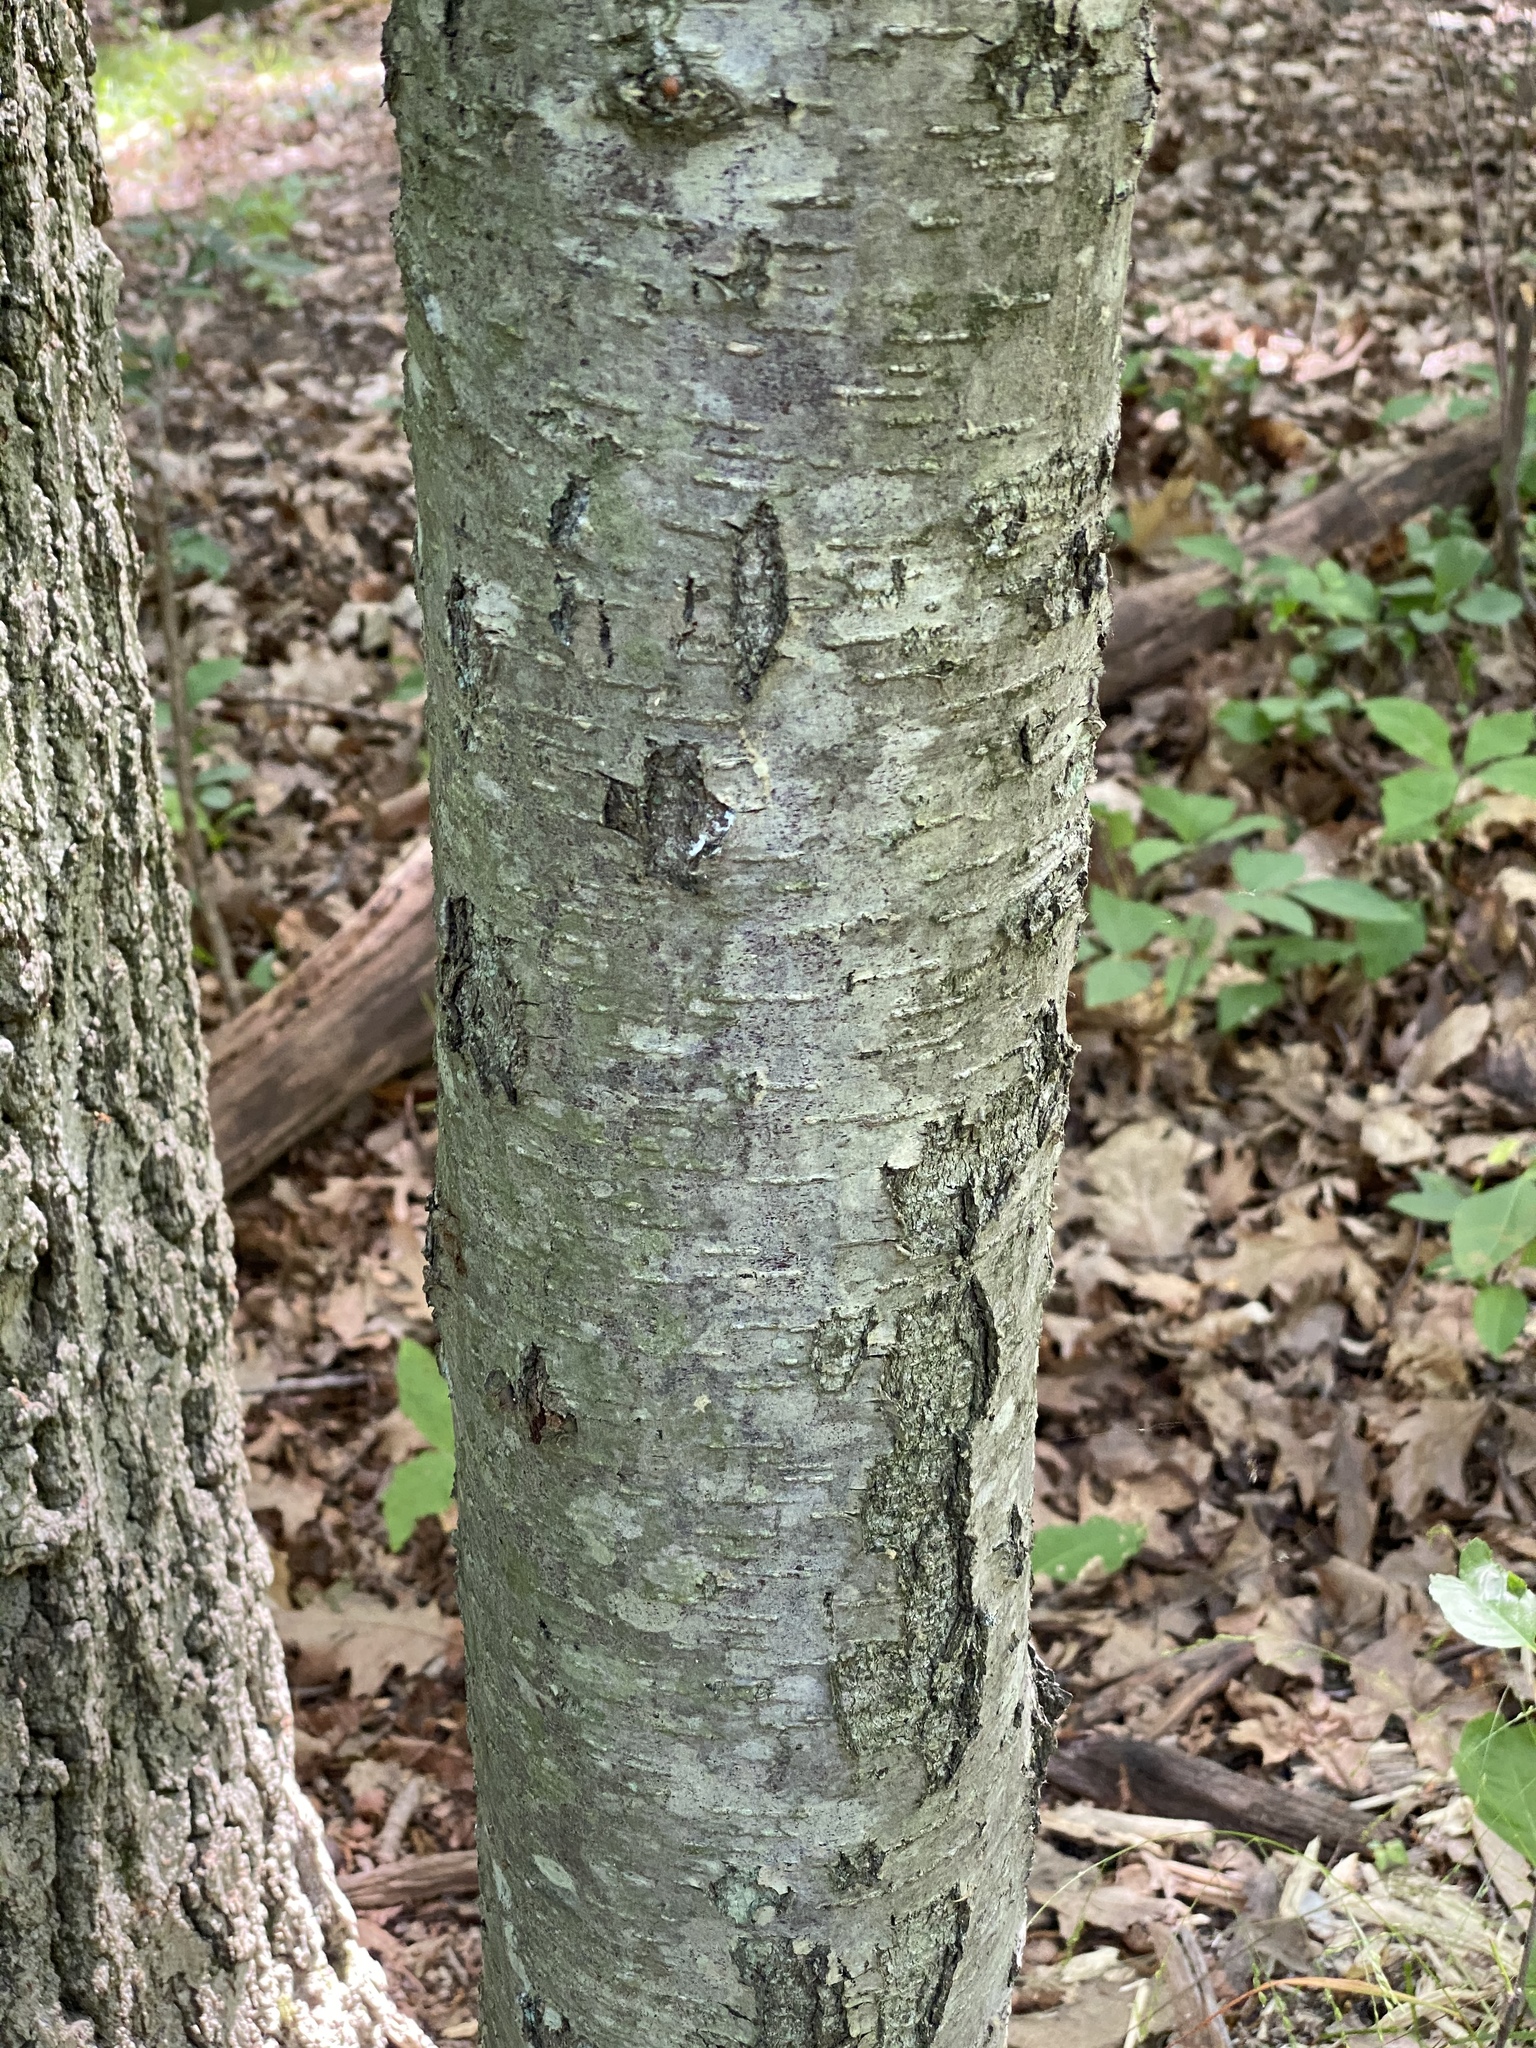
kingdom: Plantae
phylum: Tracheophyta
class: Magnoliopsida
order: Fagales
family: Betulaceae
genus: Betula
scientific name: Betula lenta
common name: Black birch
